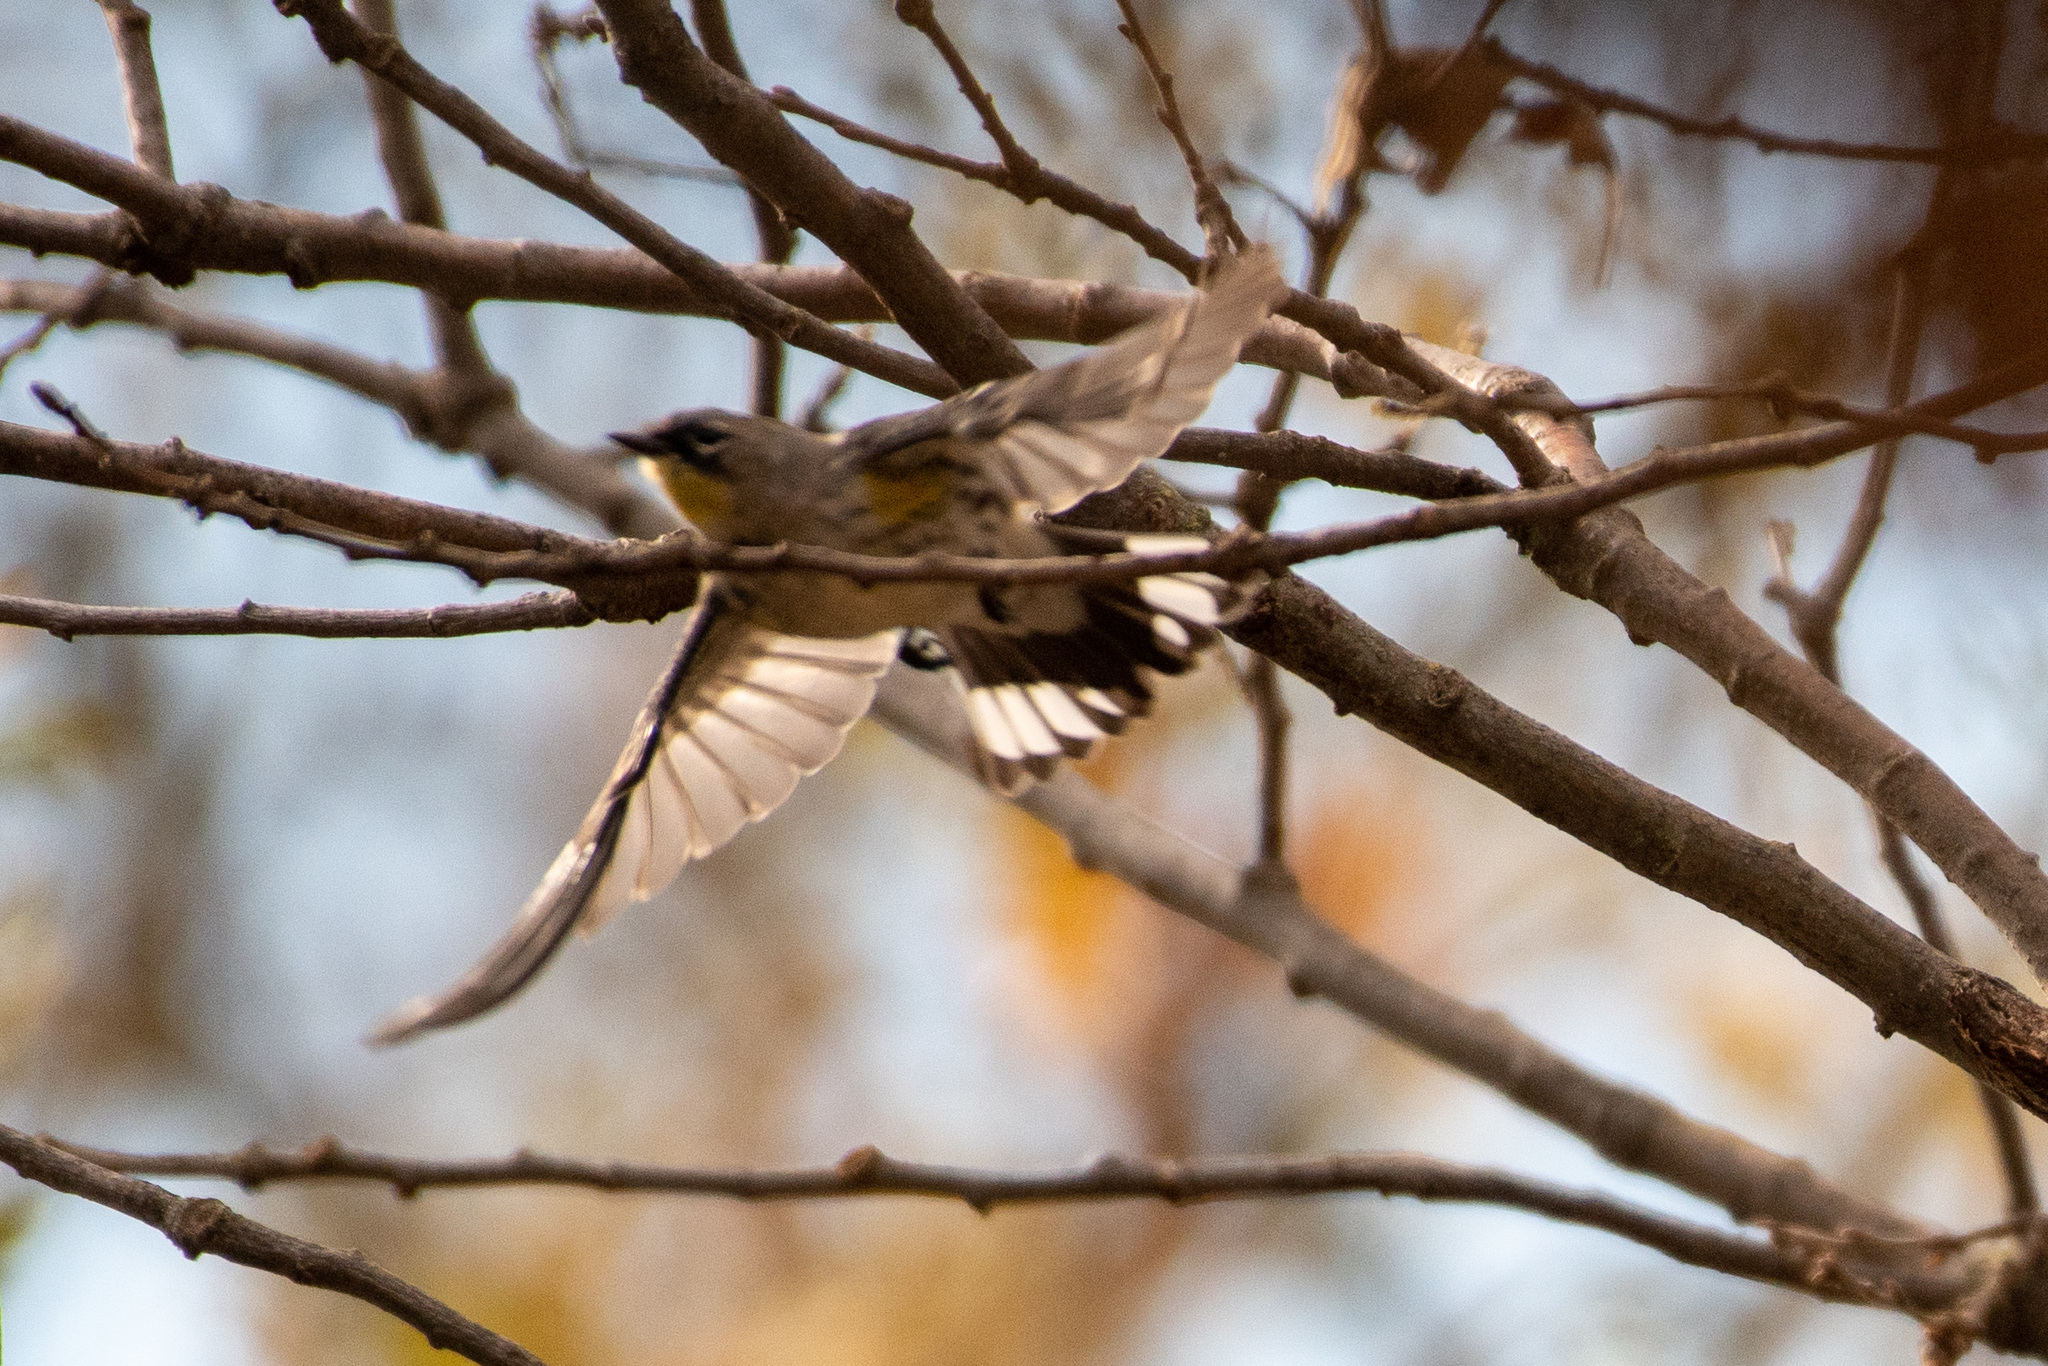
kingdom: Animalia
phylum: Chordata
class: Aves
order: Passeriformes
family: Parulidae
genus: Setophaga
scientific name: Setophaga coronata
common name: Myrtle warbler
